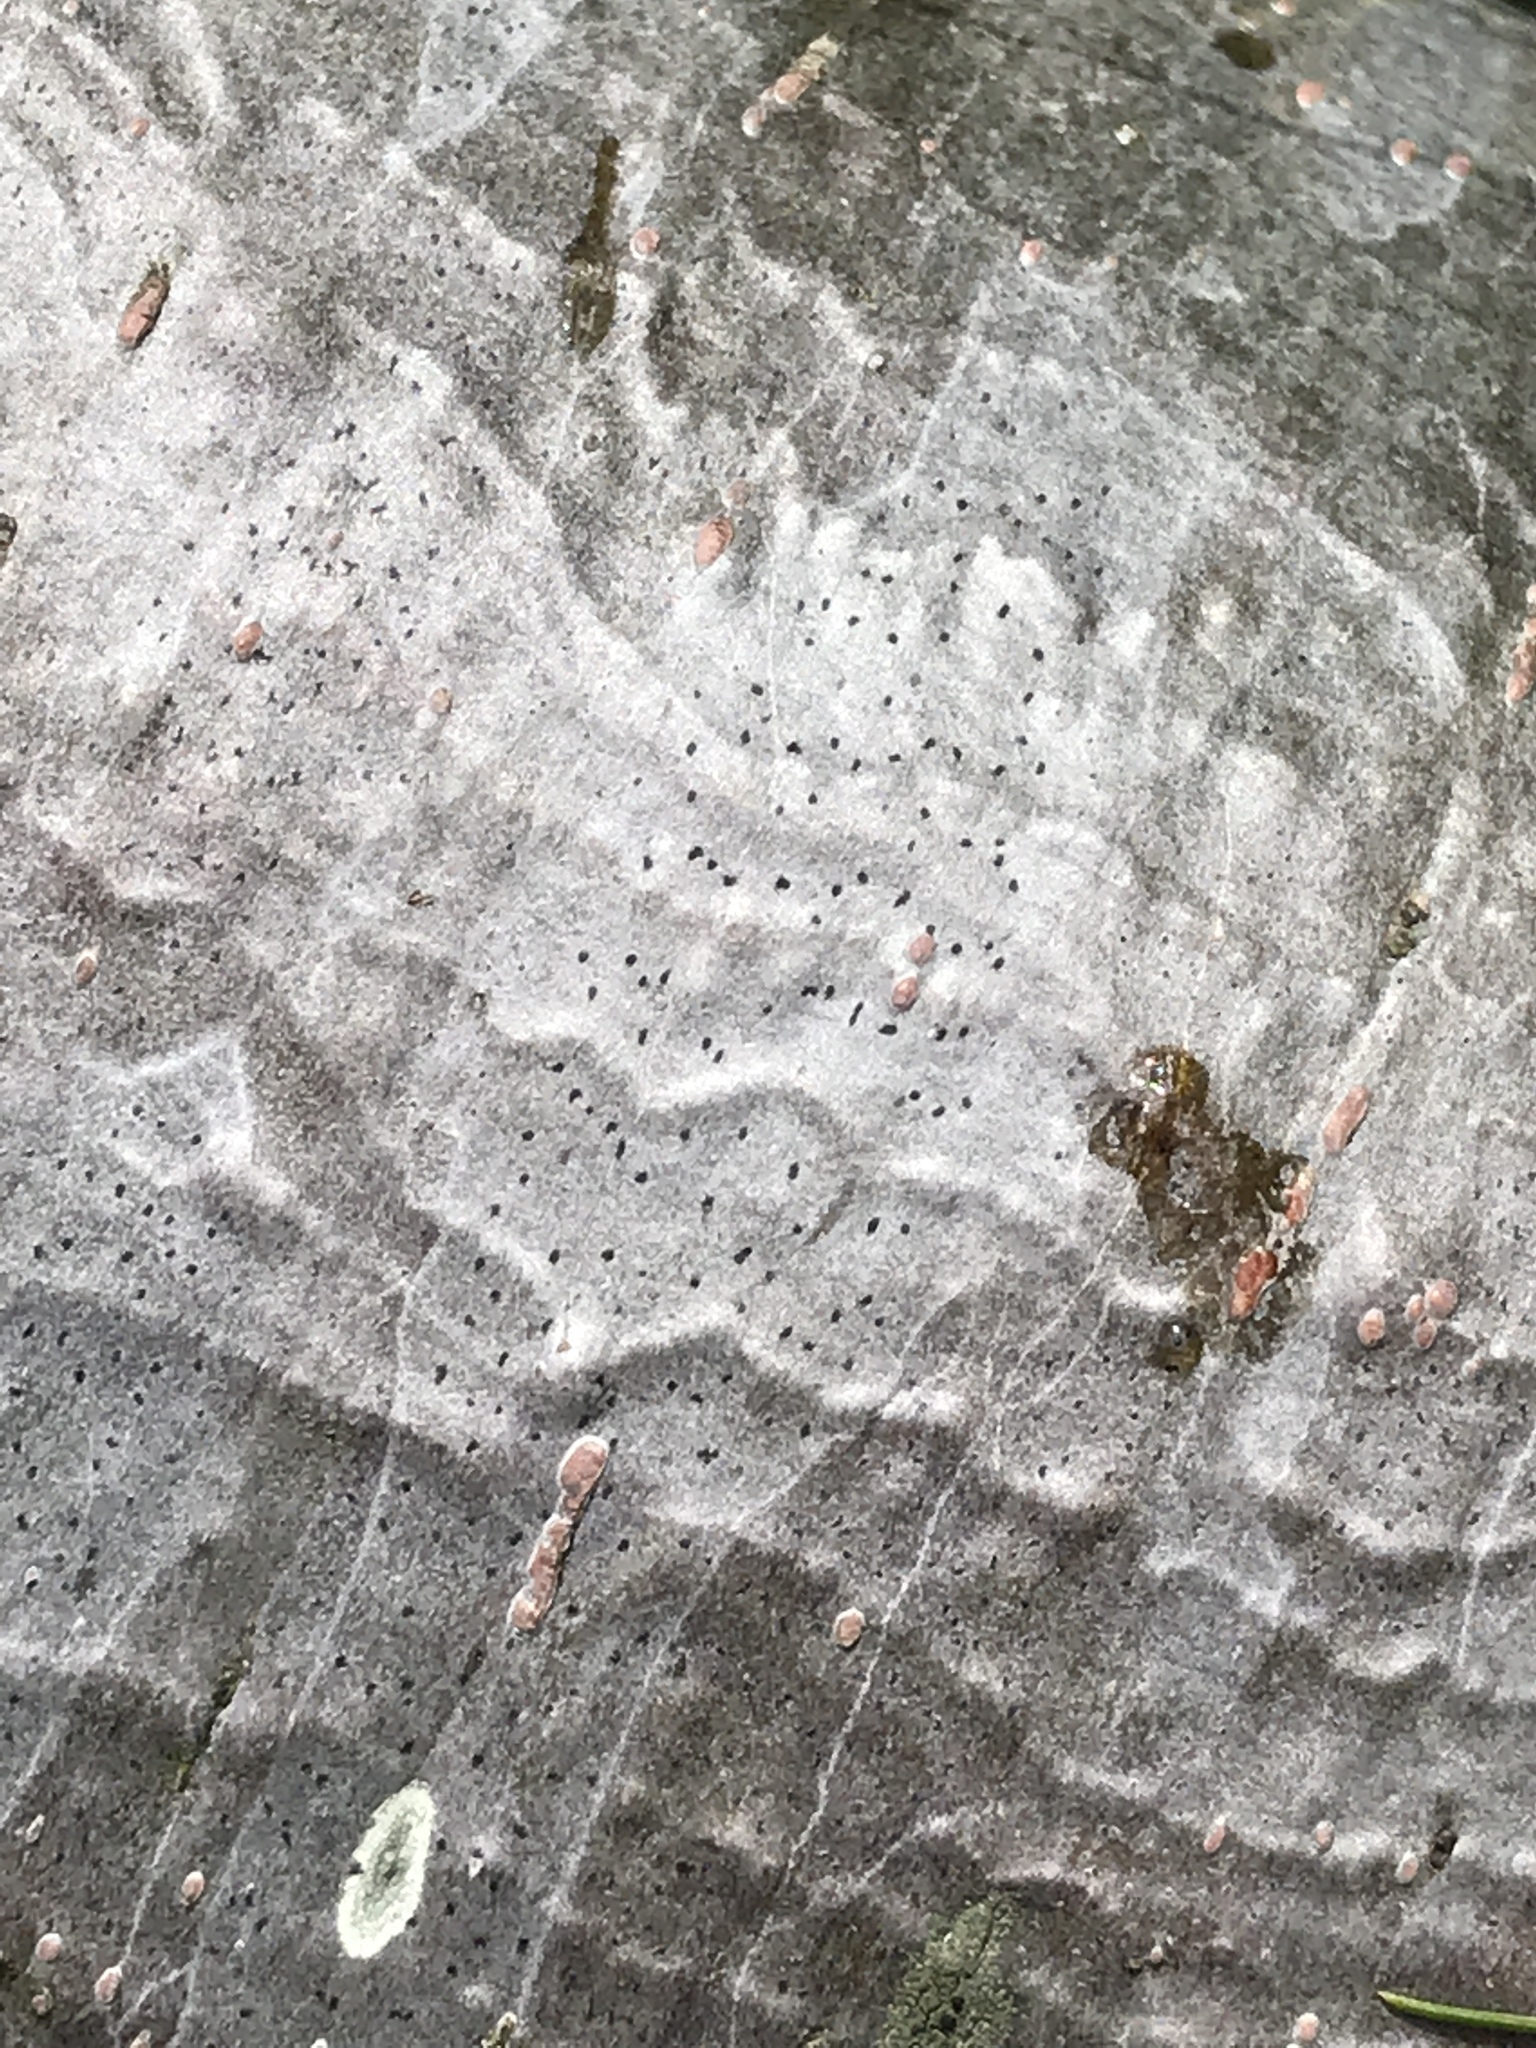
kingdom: Fungi
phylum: Ascomycota
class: Arthoniomycetes
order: Arthoniales
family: Arthoniaceae
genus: Arthonia
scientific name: Arthonia hypobela
